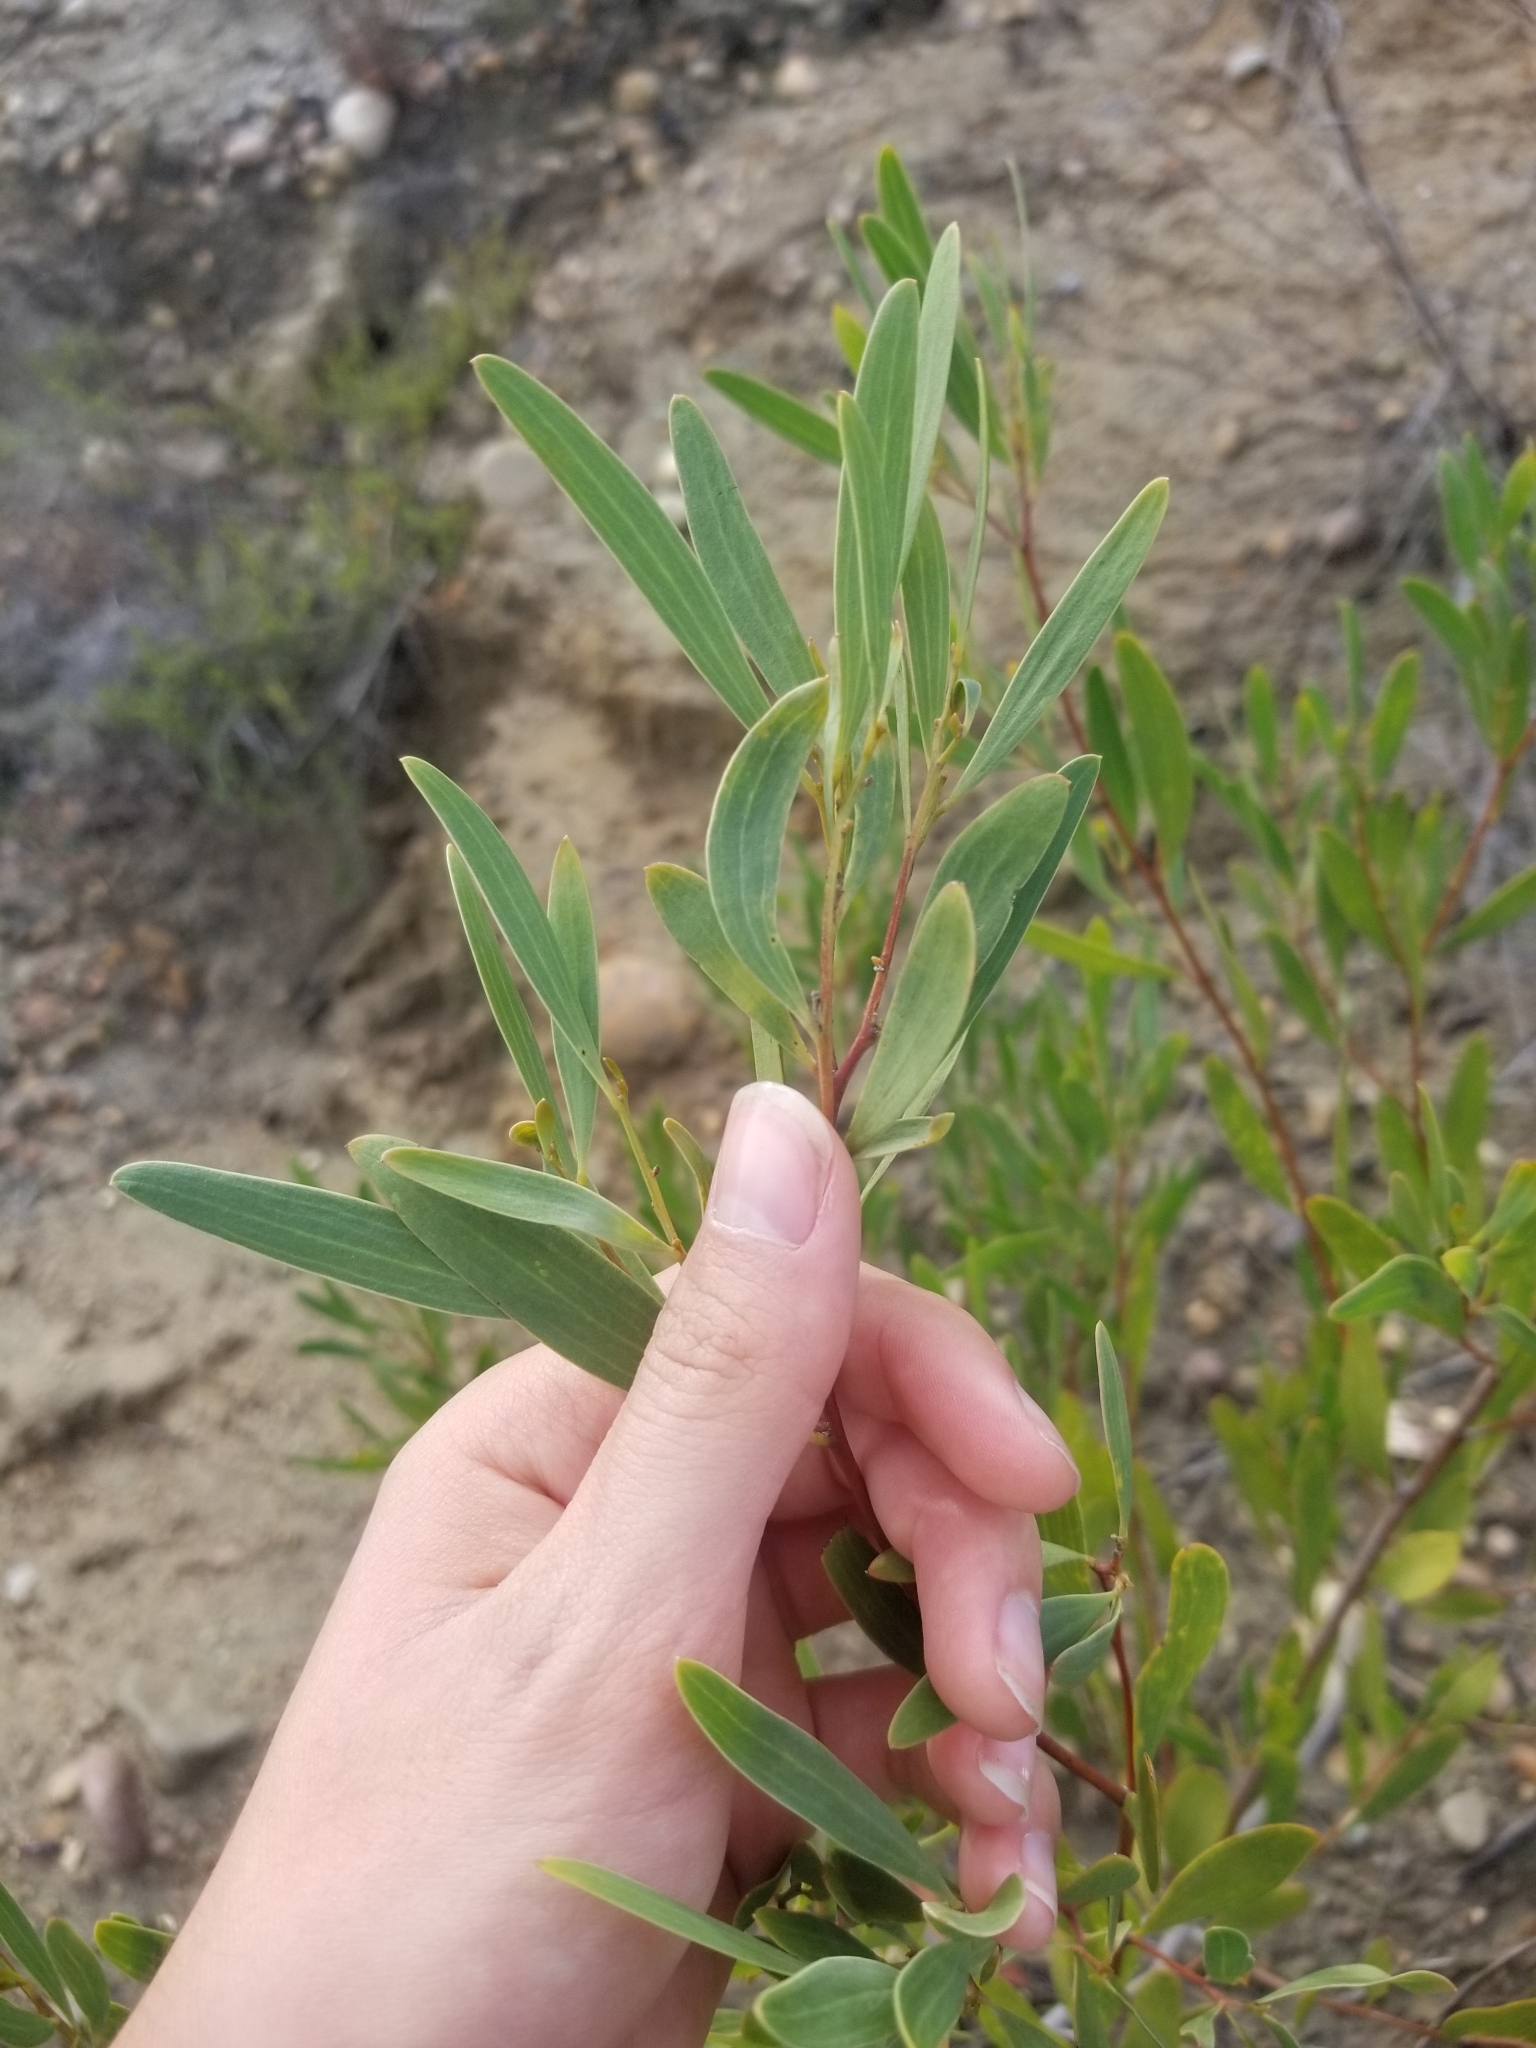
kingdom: Plantae
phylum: Tracheophyta
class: Magnoliopsida
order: Fabales
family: Fabaceae
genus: Acacia
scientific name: Acacia cyclops
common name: Coastal wattle
